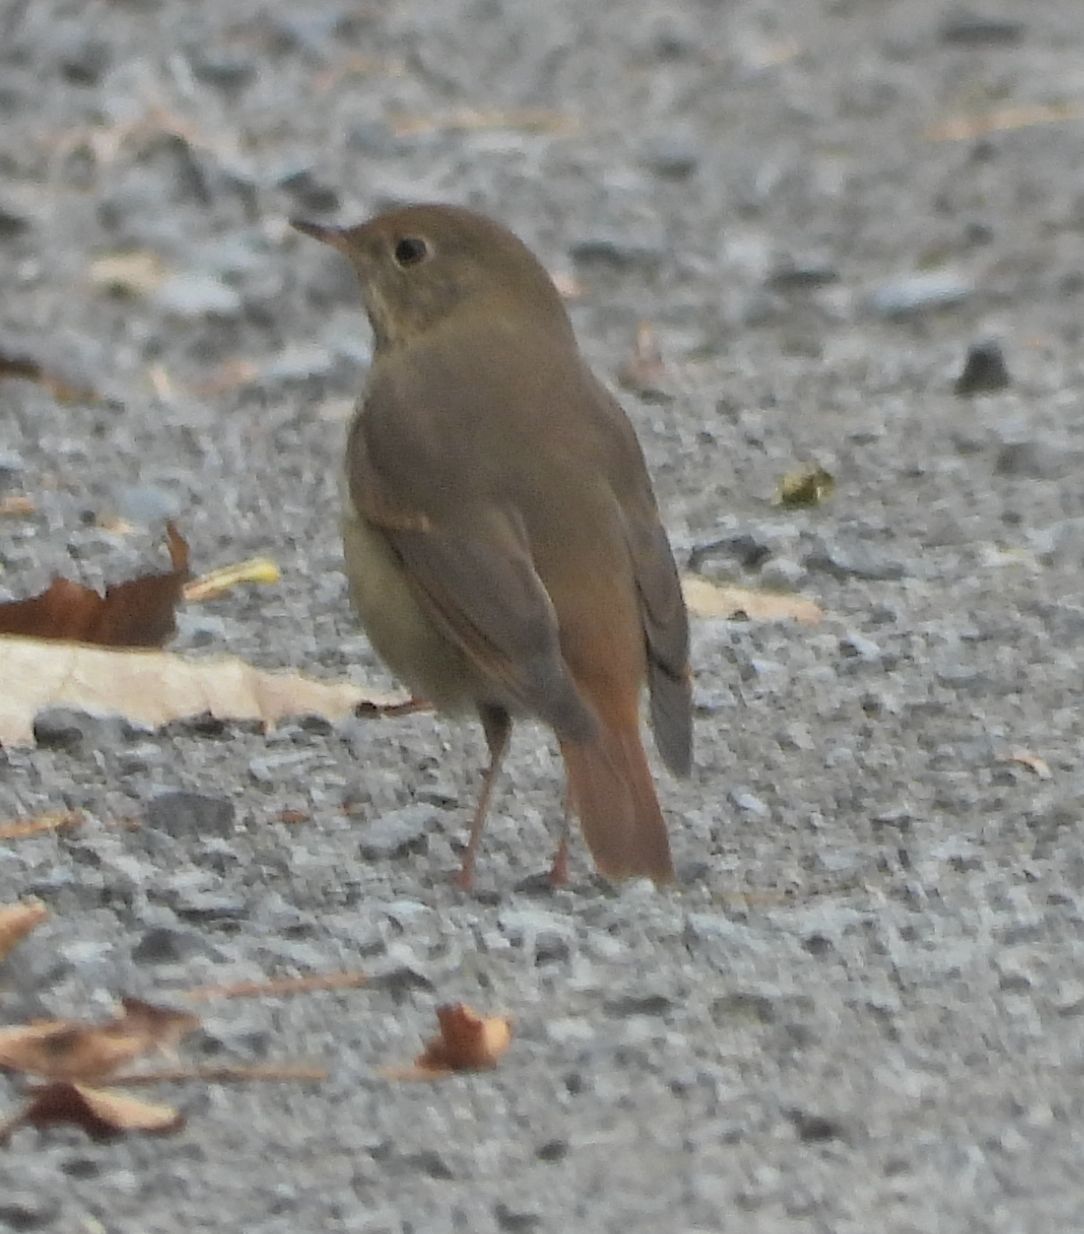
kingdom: Animalia
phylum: Chordata
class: Aves
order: Passeriformes
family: Turdidae
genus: Catharus
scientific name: Catharus guttatus
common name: Hermit thrush
